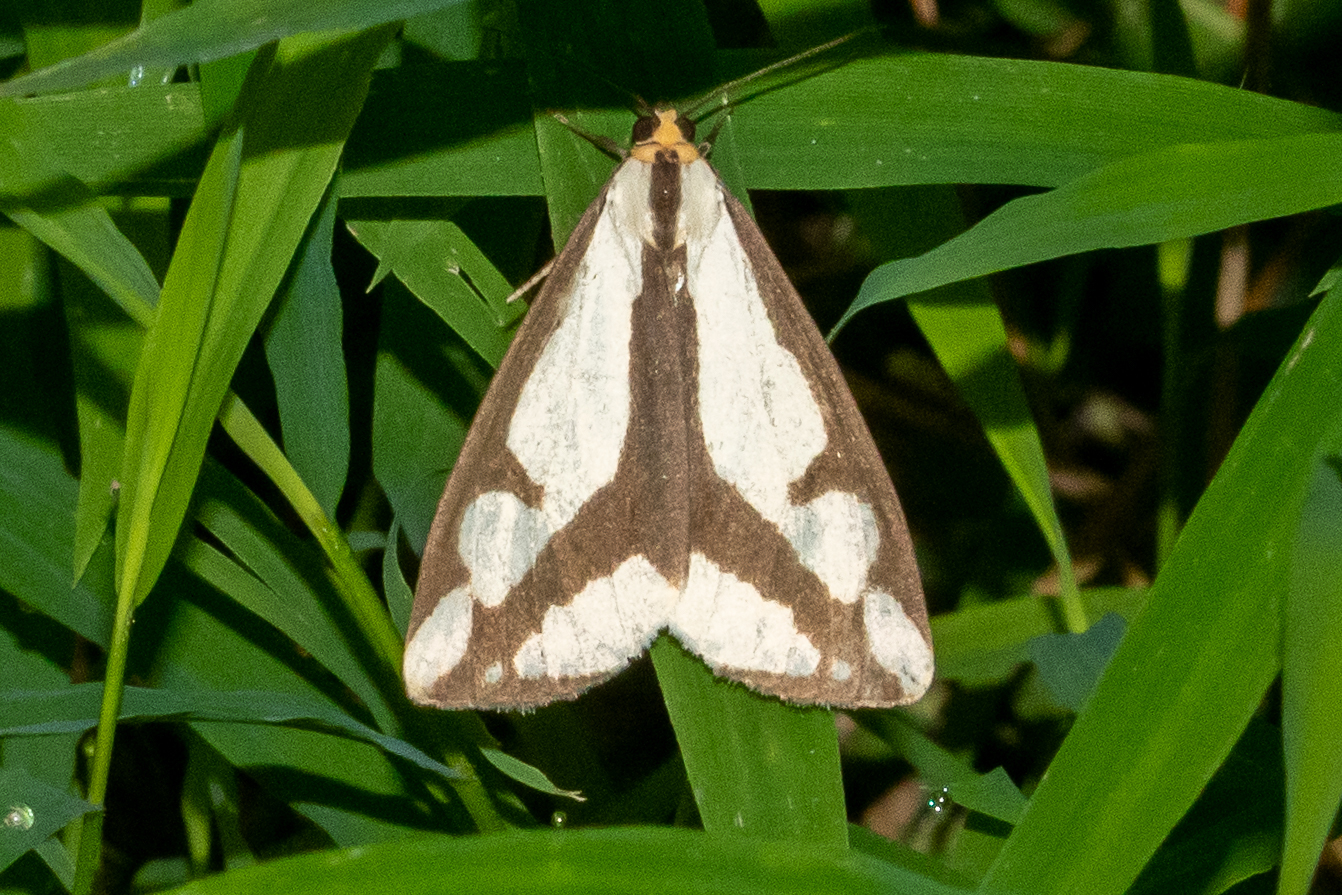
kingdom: Animalia
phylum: Arthropoda
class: Insecta
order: Lepidoptera
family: Erebidae
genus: Haploa
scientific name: Haploa lecontei
